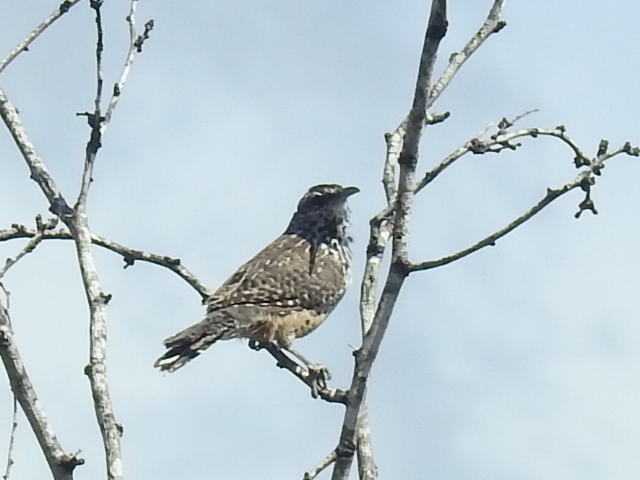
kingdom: Animalia
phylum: Chordata
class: Aves
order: Passeriformes
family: Troglodytidae
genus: Campylorhynchus
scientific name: Campylorhynchus brunneicapillus
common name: Cactus wren
